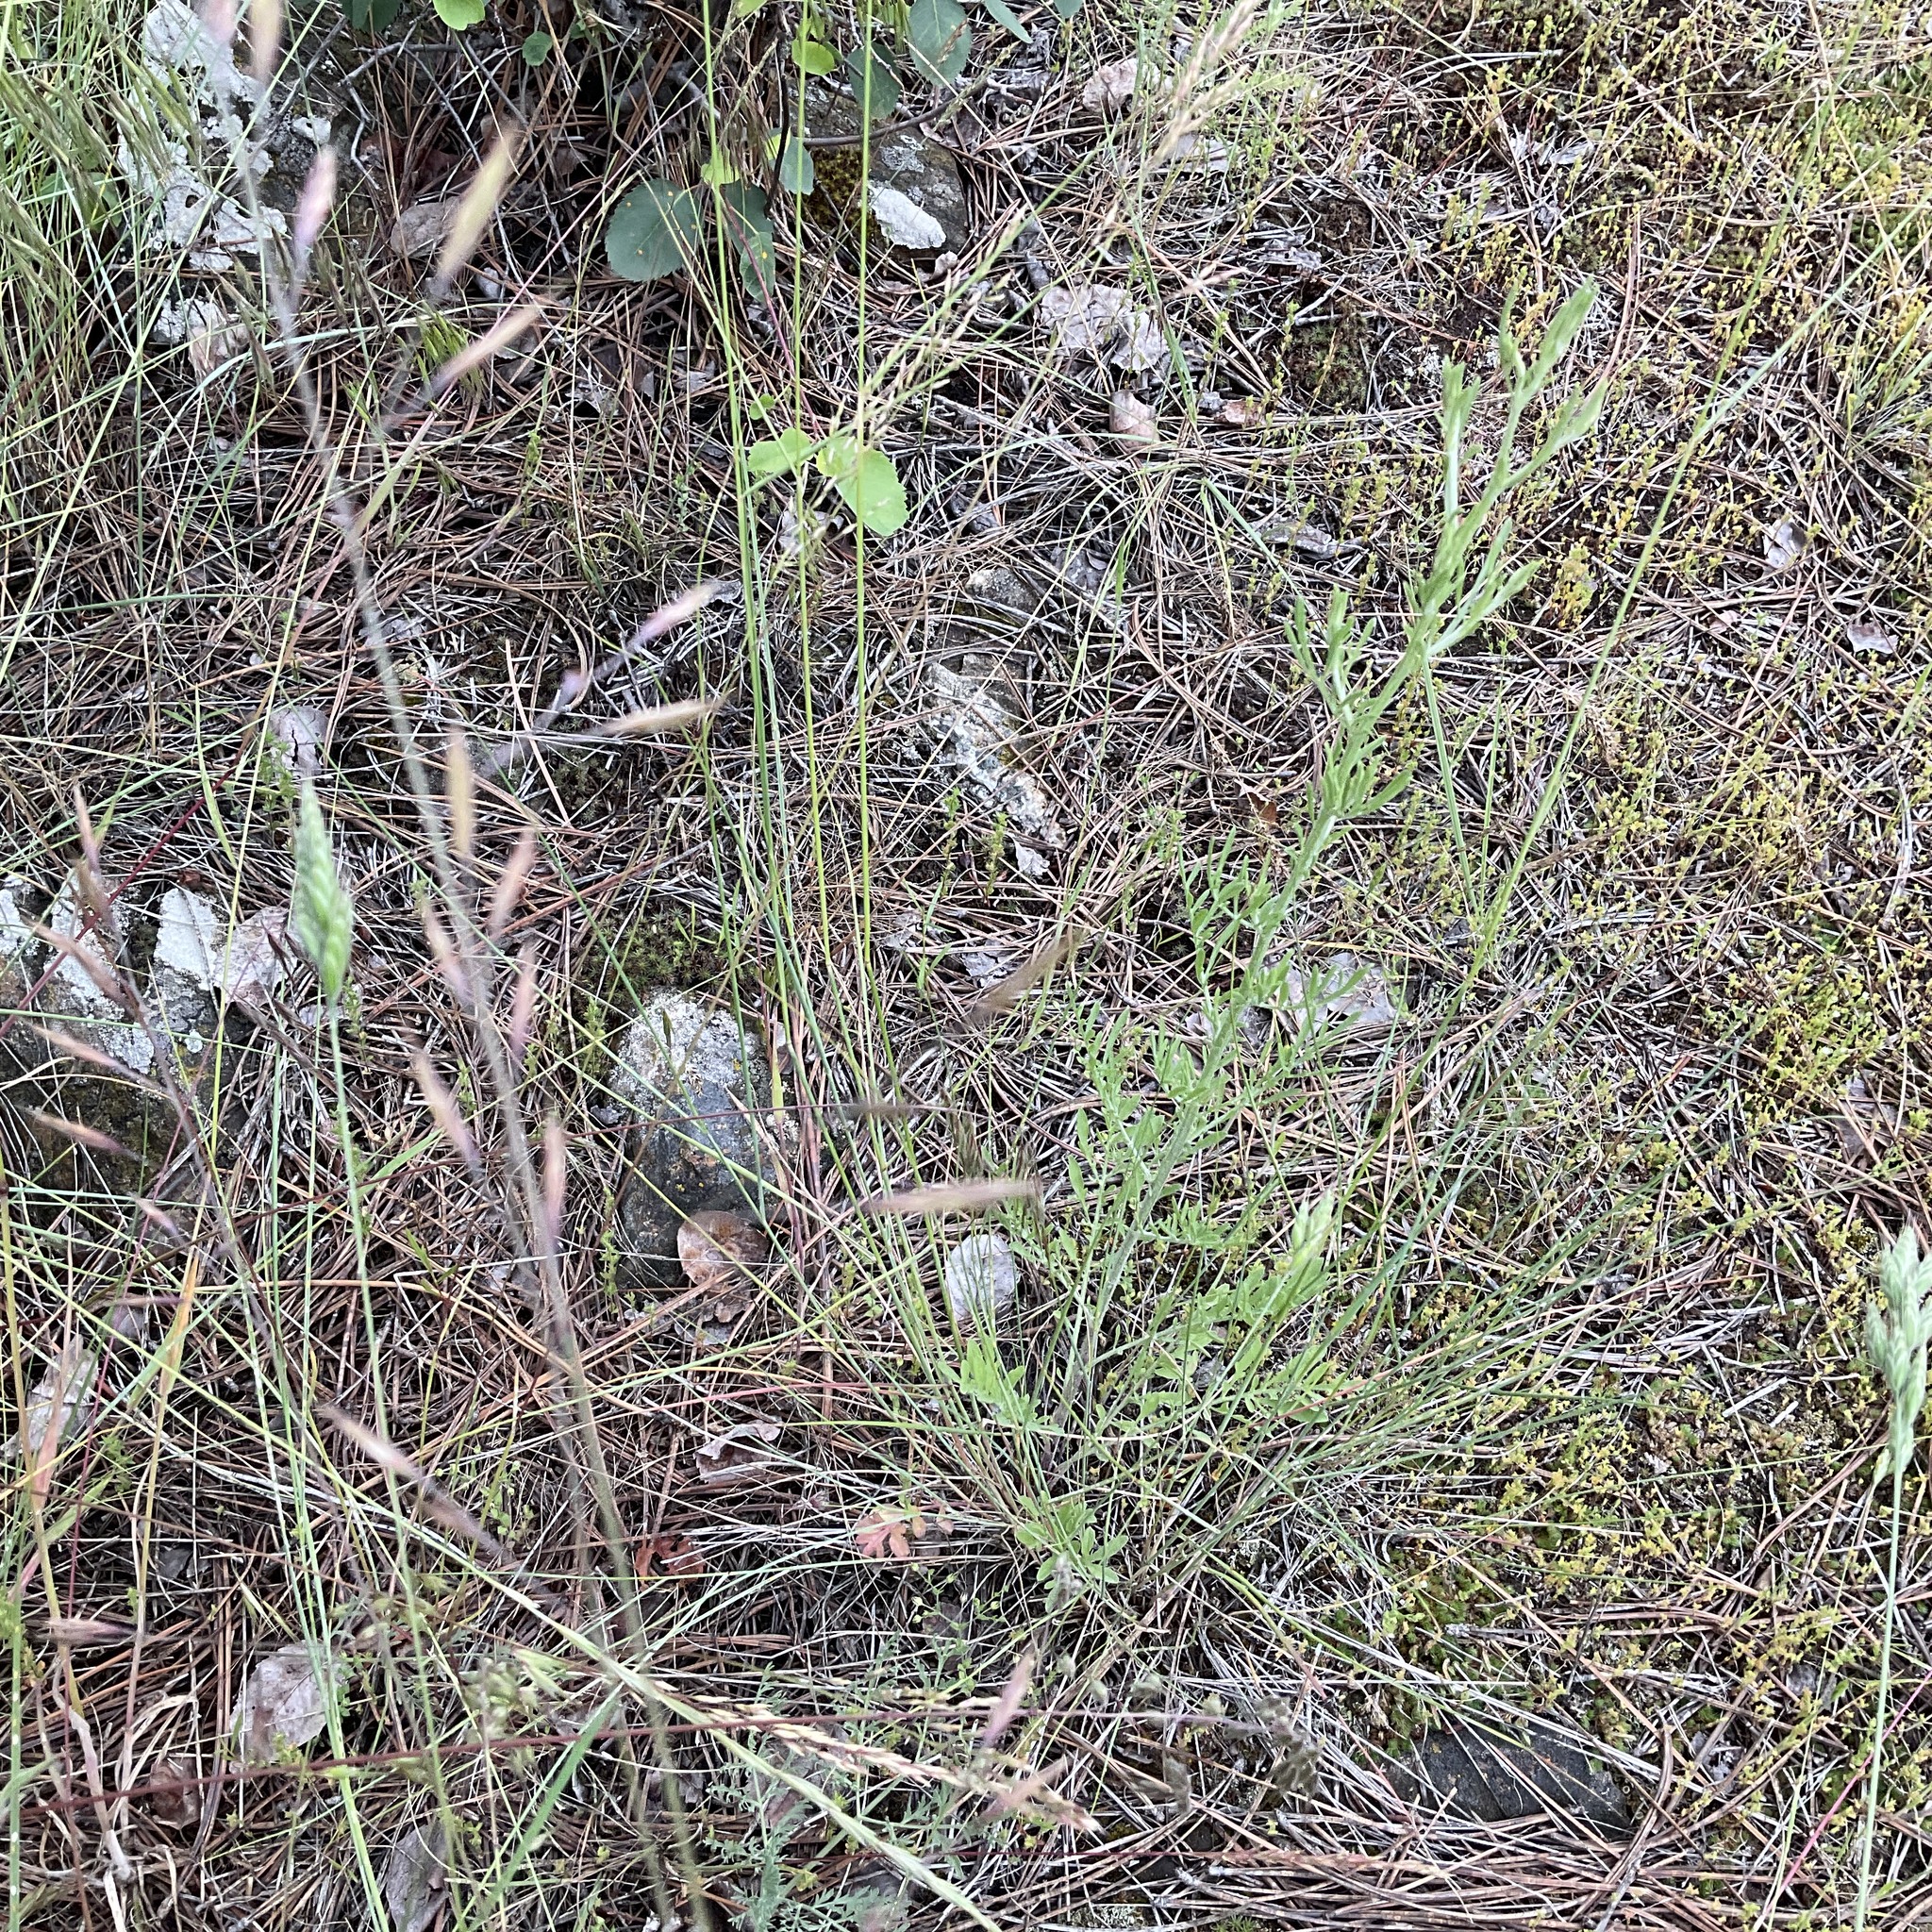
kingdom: Plantae
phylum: Tracheophyta
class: Magnoliopsida
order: Asterales
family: Asteraceae
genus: Centaurea
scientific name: Centaurea diffusa
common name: Diffuse knapweed
